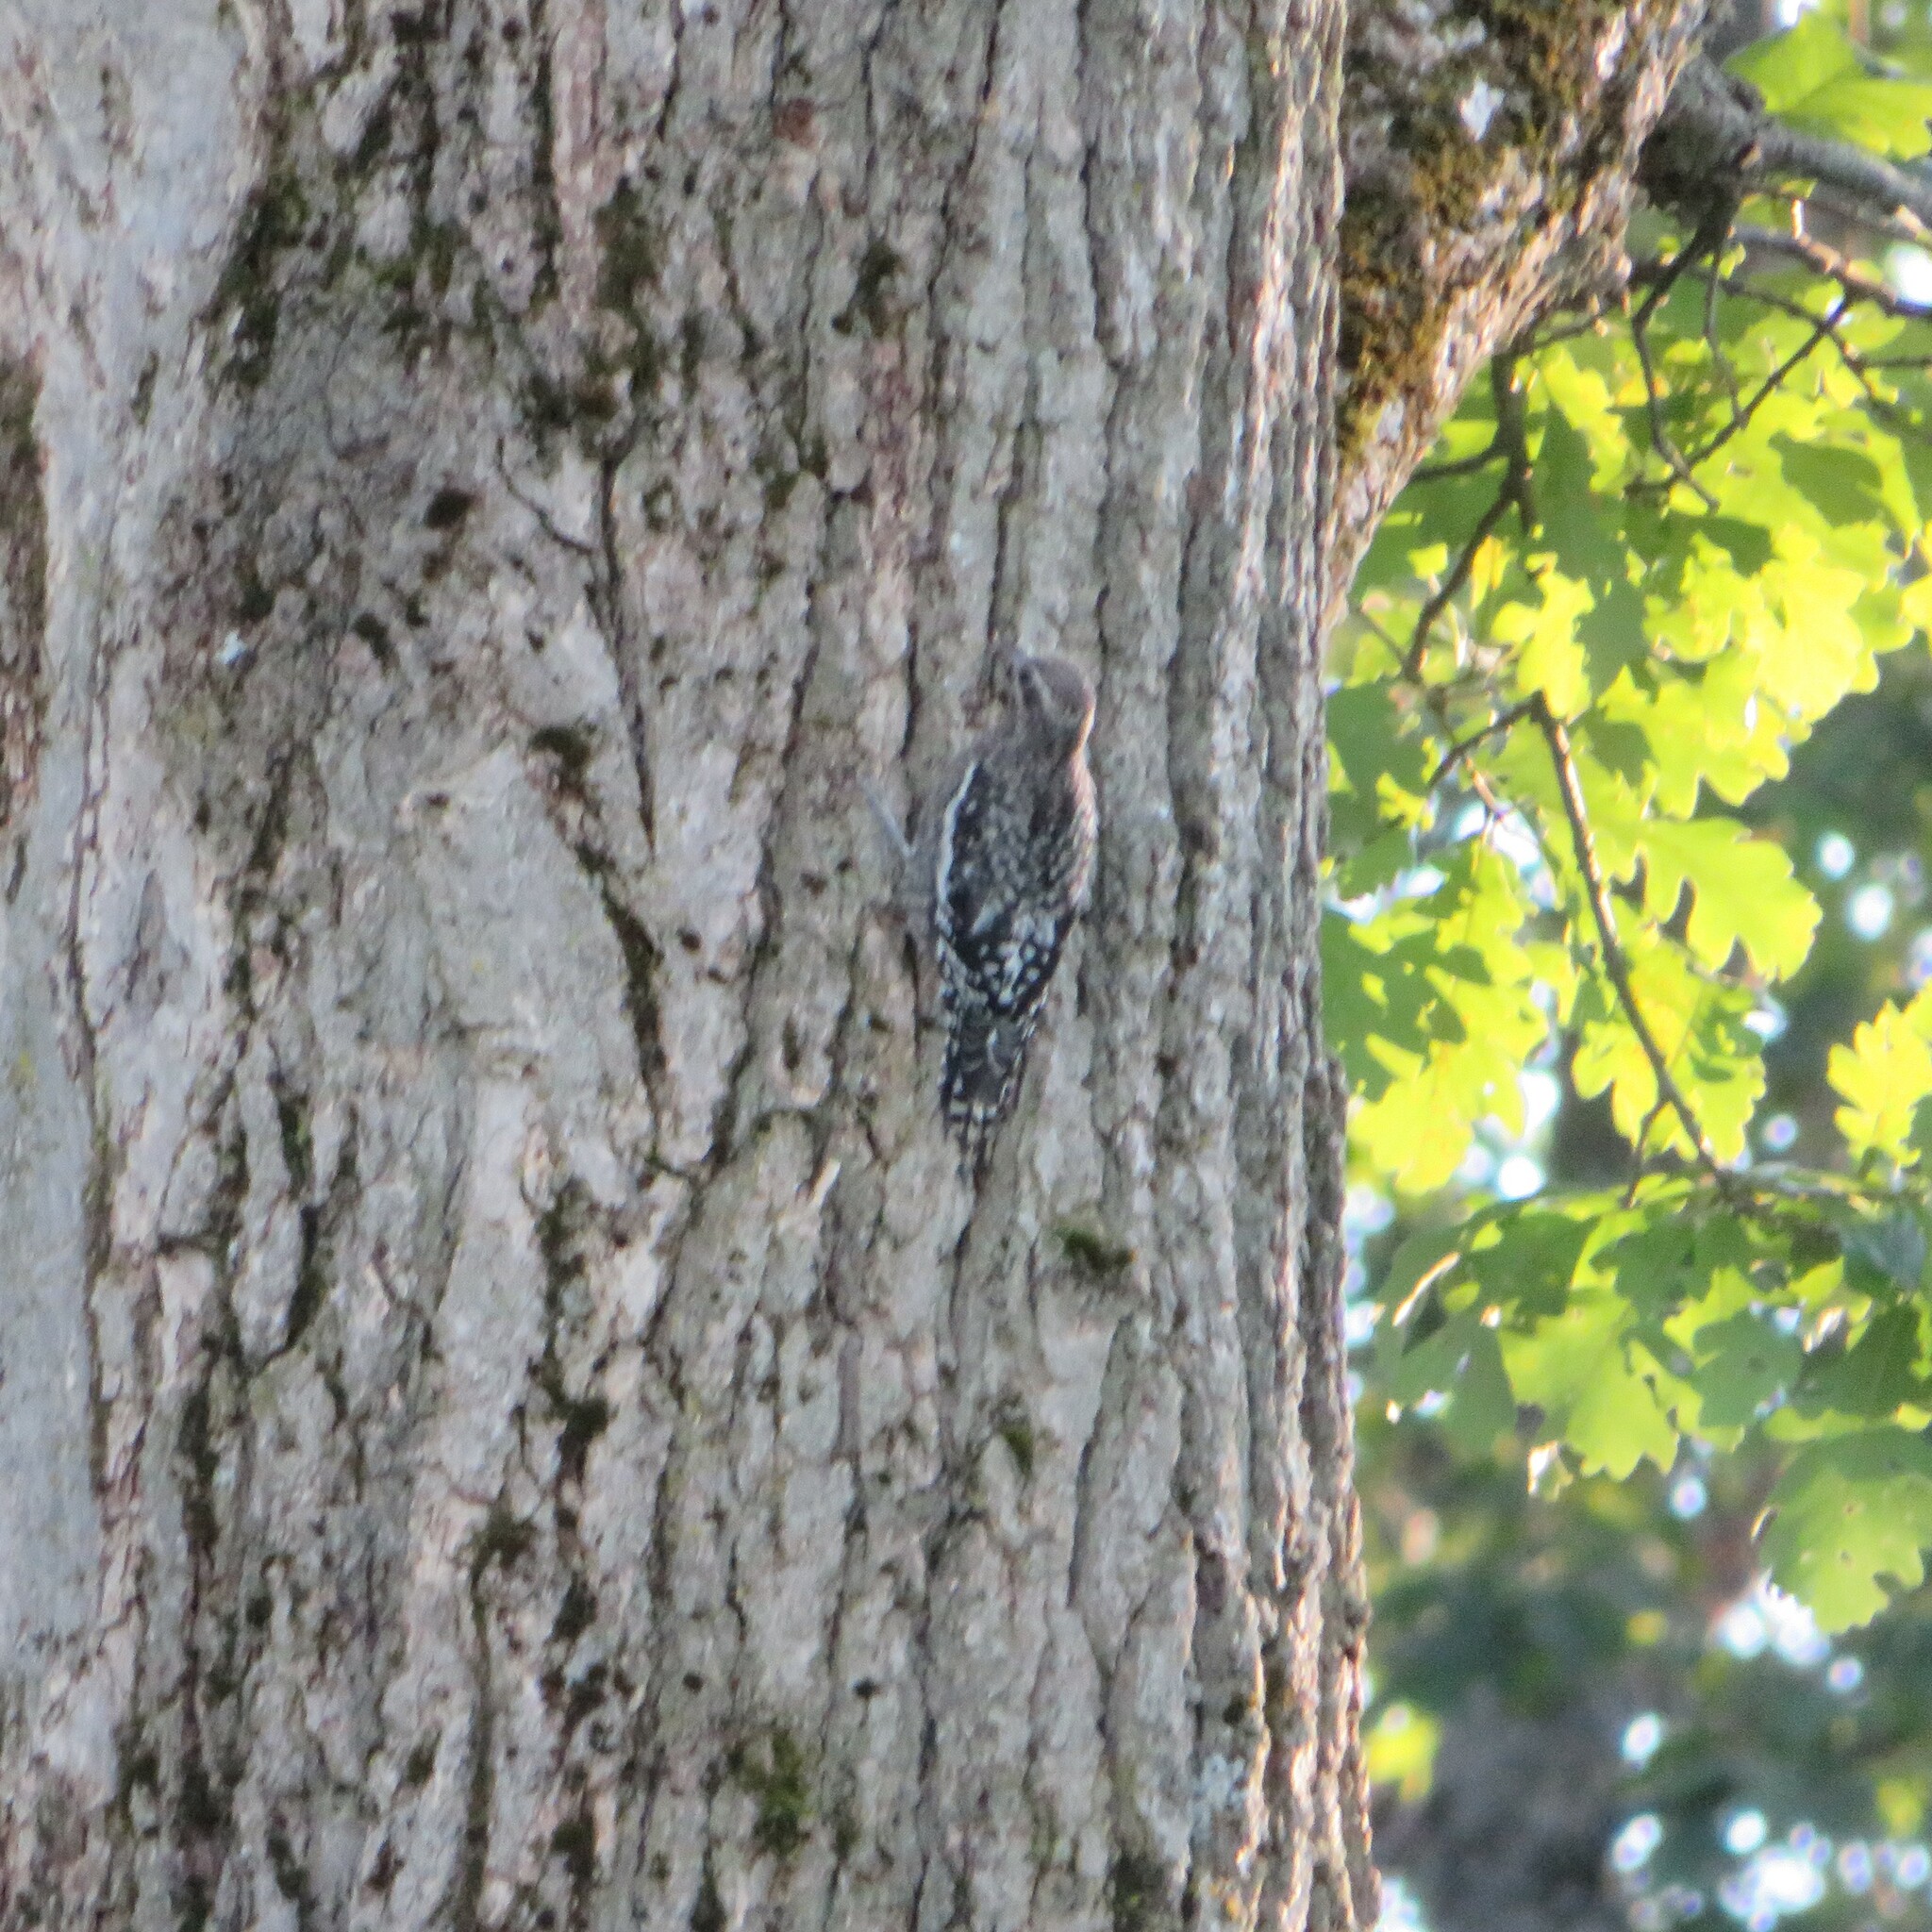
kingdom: Animalia
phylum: Chordata
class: Aves
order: Piciformes
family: Picidae
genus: Sphyrapicus
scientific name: Sphyrapicus varius
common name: Yellow-bellied sapsucker
